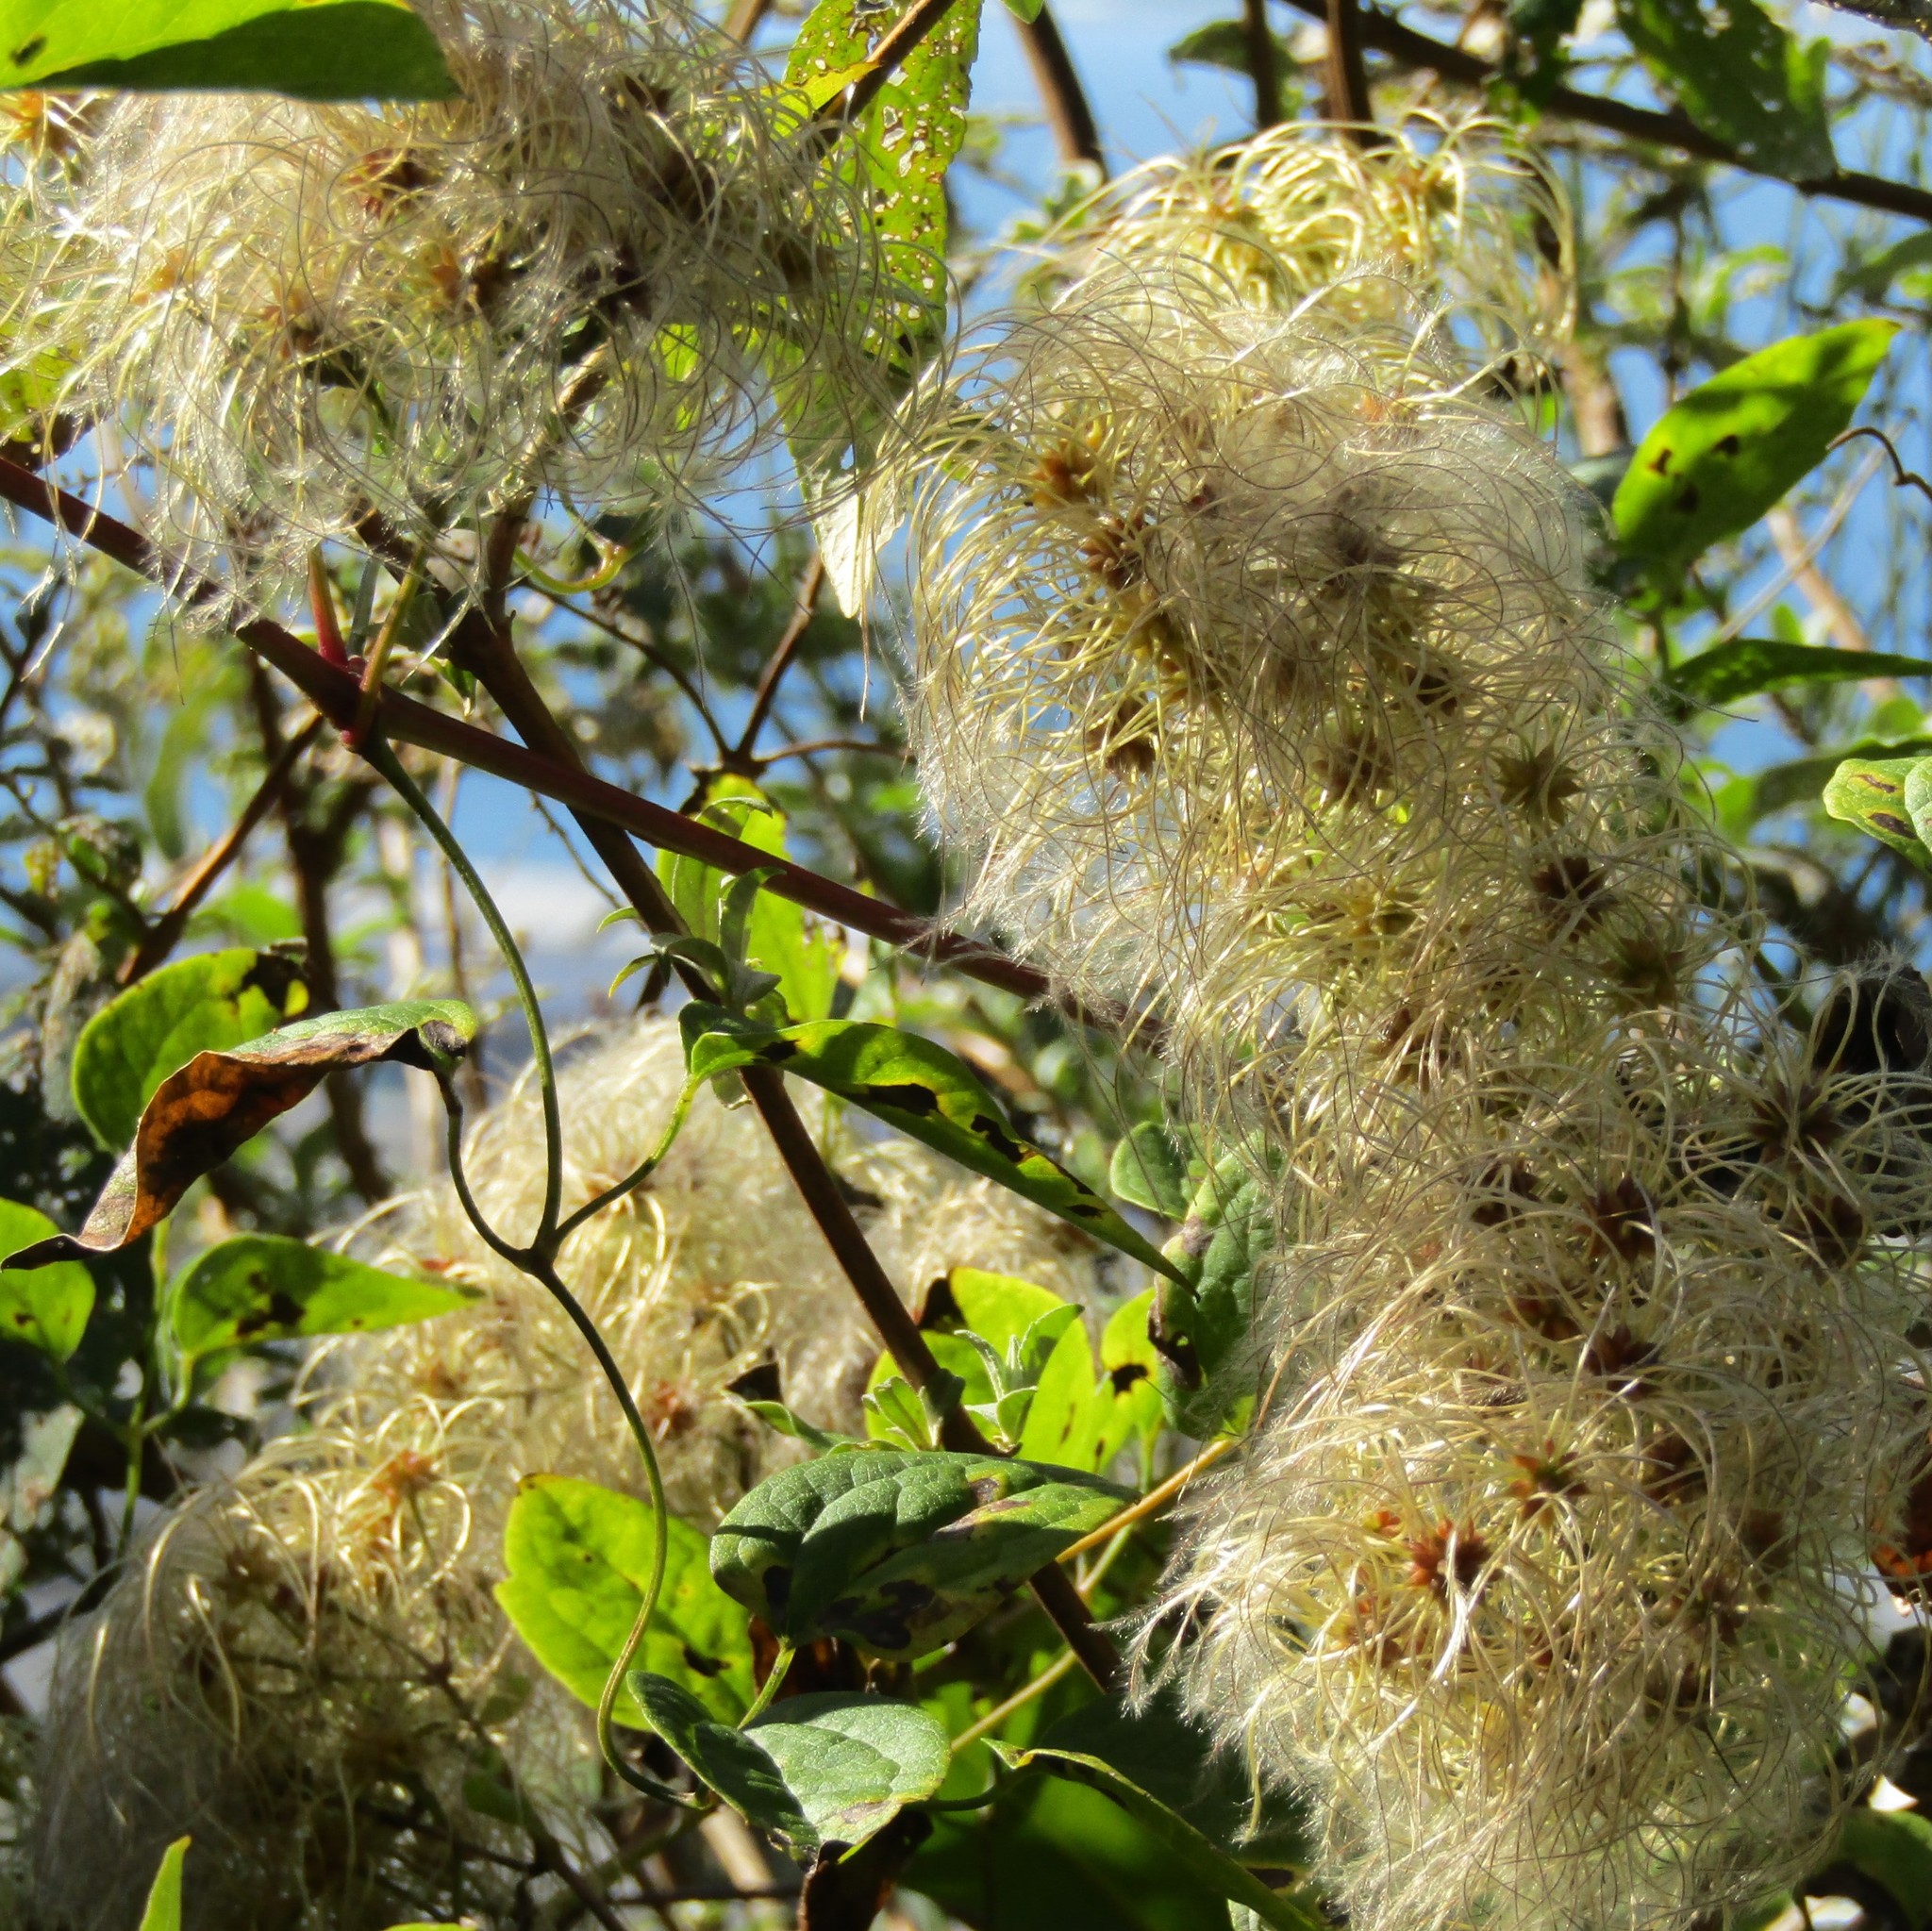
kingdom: Plantae
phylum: Tracheophyta
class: Magnoliopsida
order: Ranunculales
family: Ranunculaceae
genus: Clematis
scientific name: Clematis vitalba
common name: Evergreen clematis
